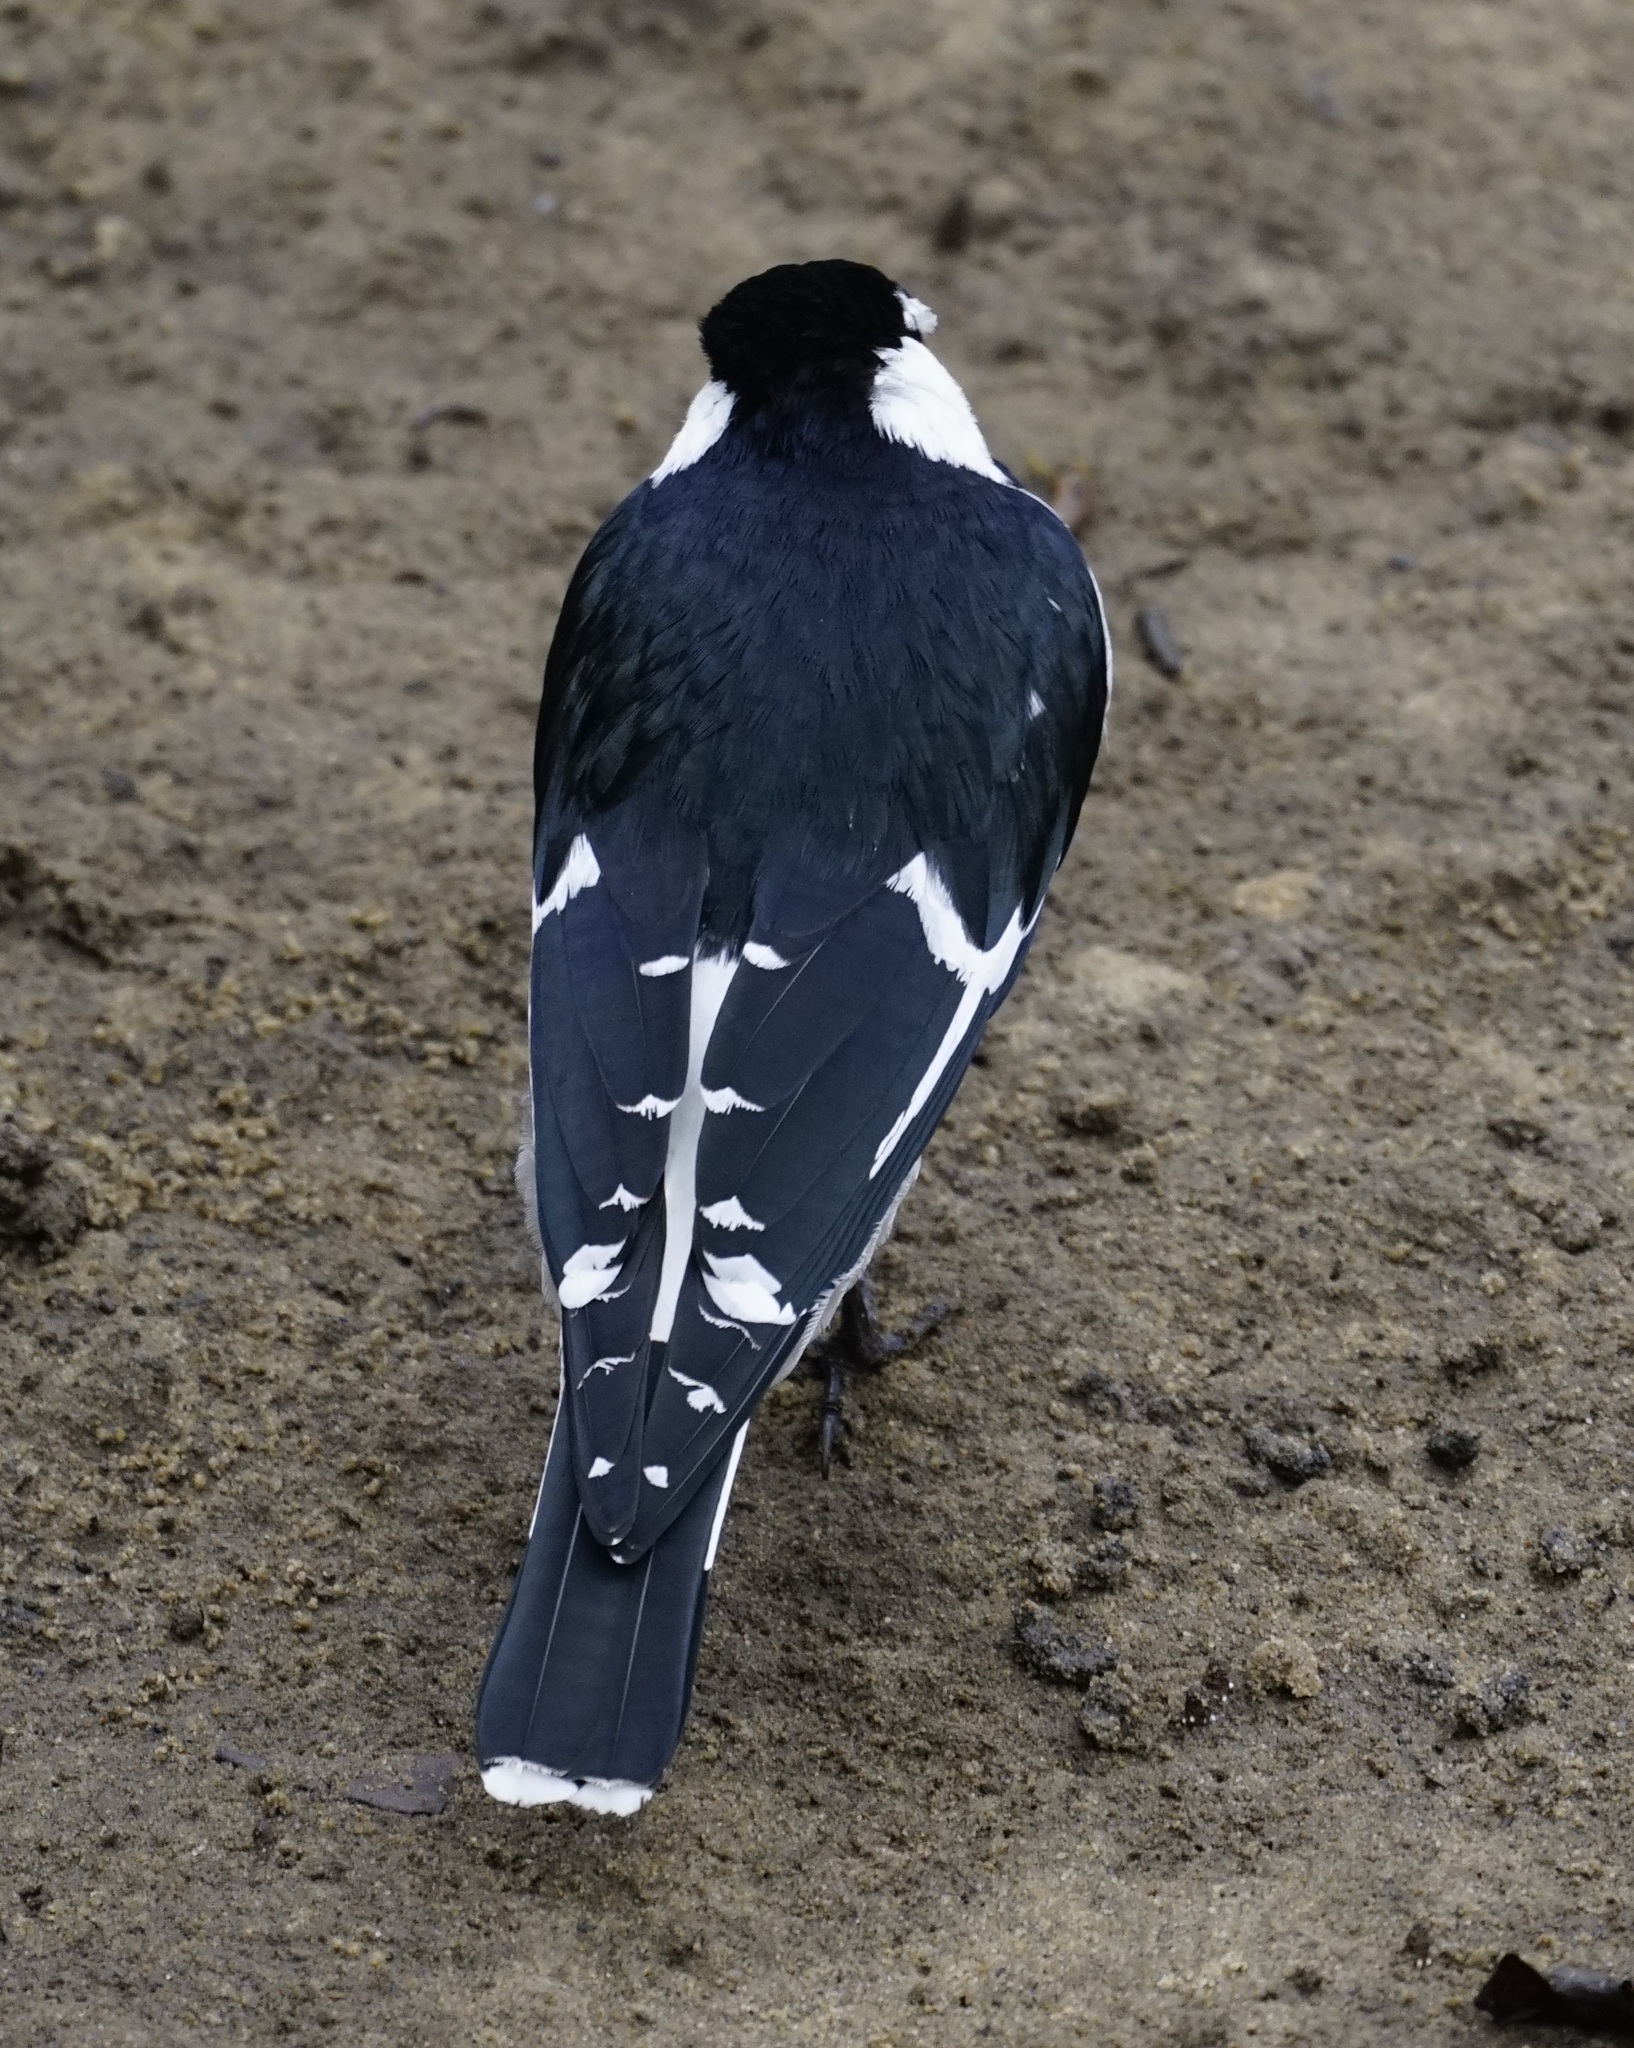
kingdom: Animalia
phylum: Chordata
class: Aves
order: Passeriformes
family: Monarchidae
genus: Grallina
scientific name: Grallina cyanoleuca
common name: Magpie-lark
